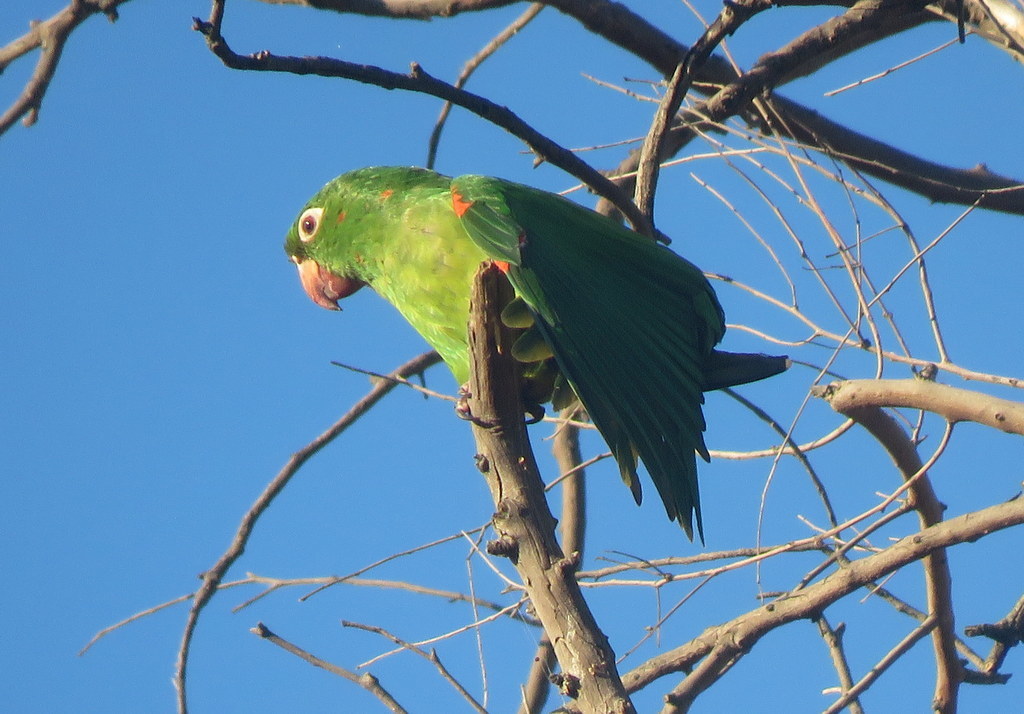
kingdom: Animalia
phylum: Chordata
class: Aves
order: Psittaciformes
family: Psittacidae
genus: Aratinga
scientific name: Aratinga leucophthalma
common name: White-eyed parakeet
